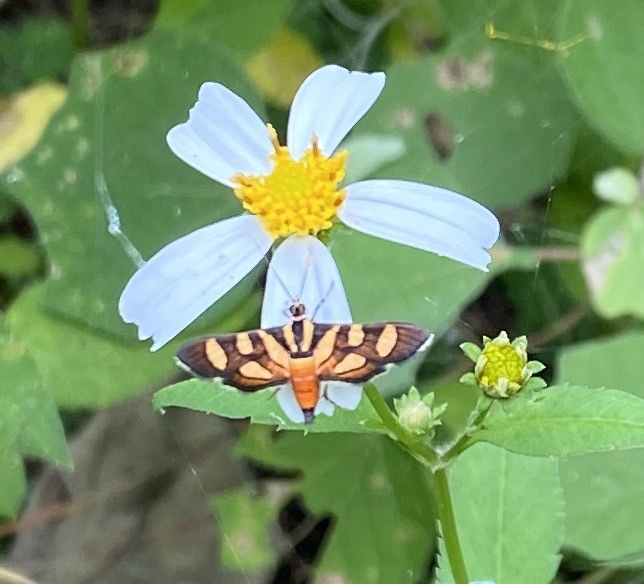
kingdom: Animalia
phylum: Arthropoda
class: Insecta
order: Lepidoptera
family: Crambidae
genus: Syngamia
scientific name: Syngamia florella
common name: Orange-spotted flower moth
